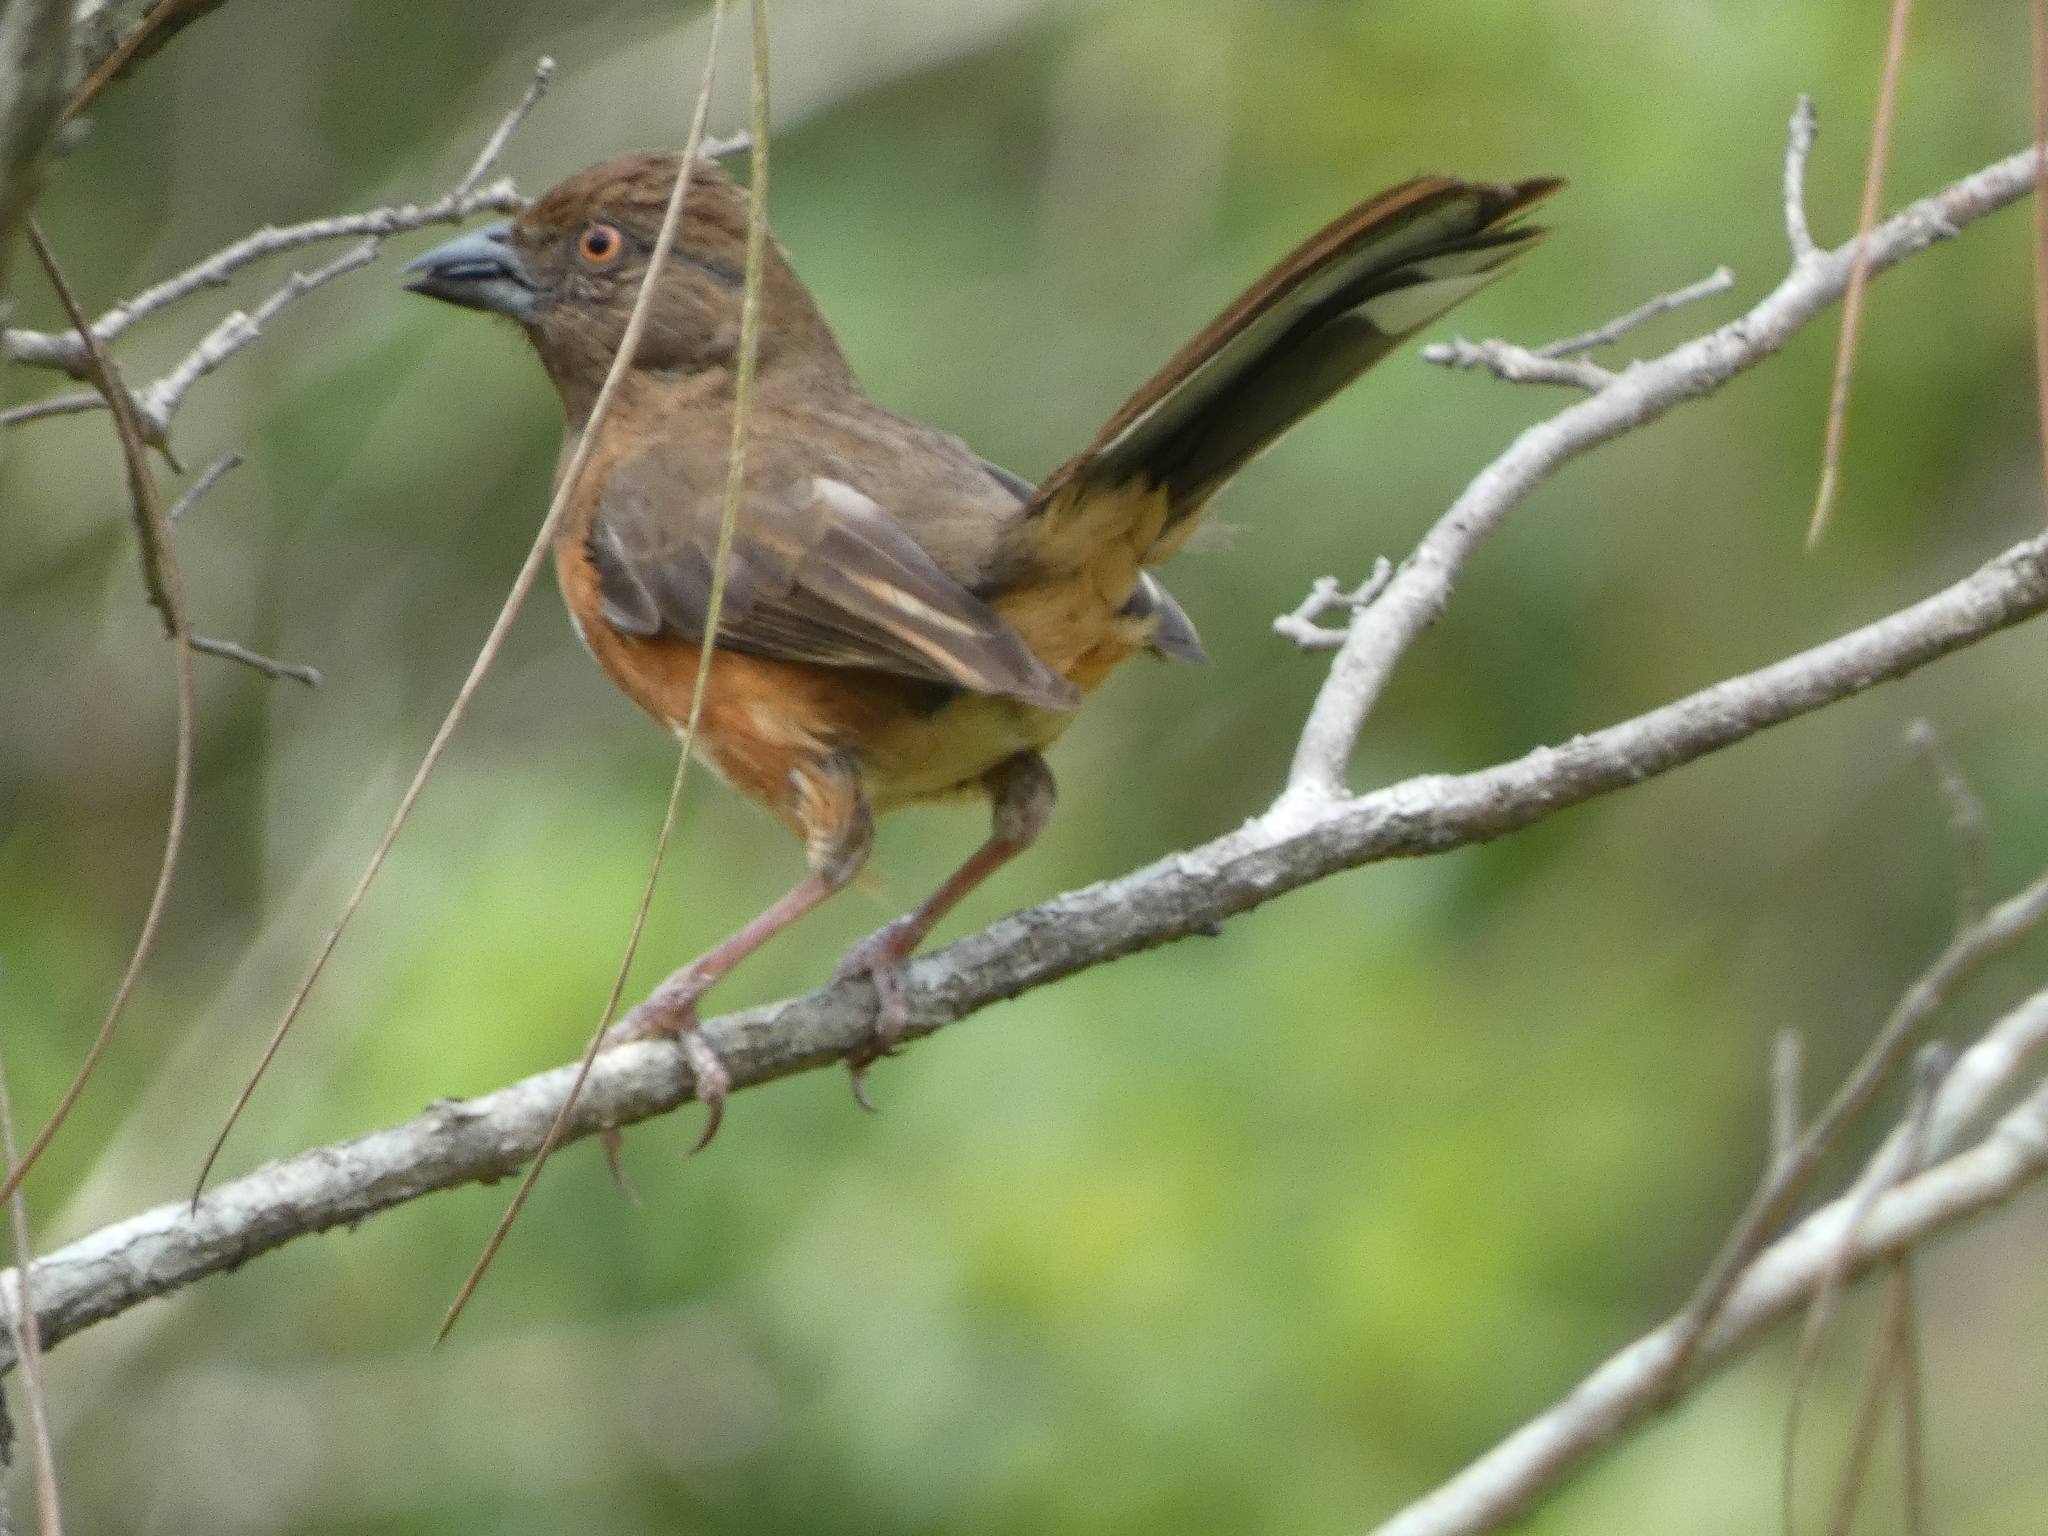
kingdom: Animalia
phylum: Chordata
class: Aves
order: Passeriformes
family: Passerellidae
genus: Pipilo
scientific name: Pipilo erythrophthalmus
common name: Eastern towhee
